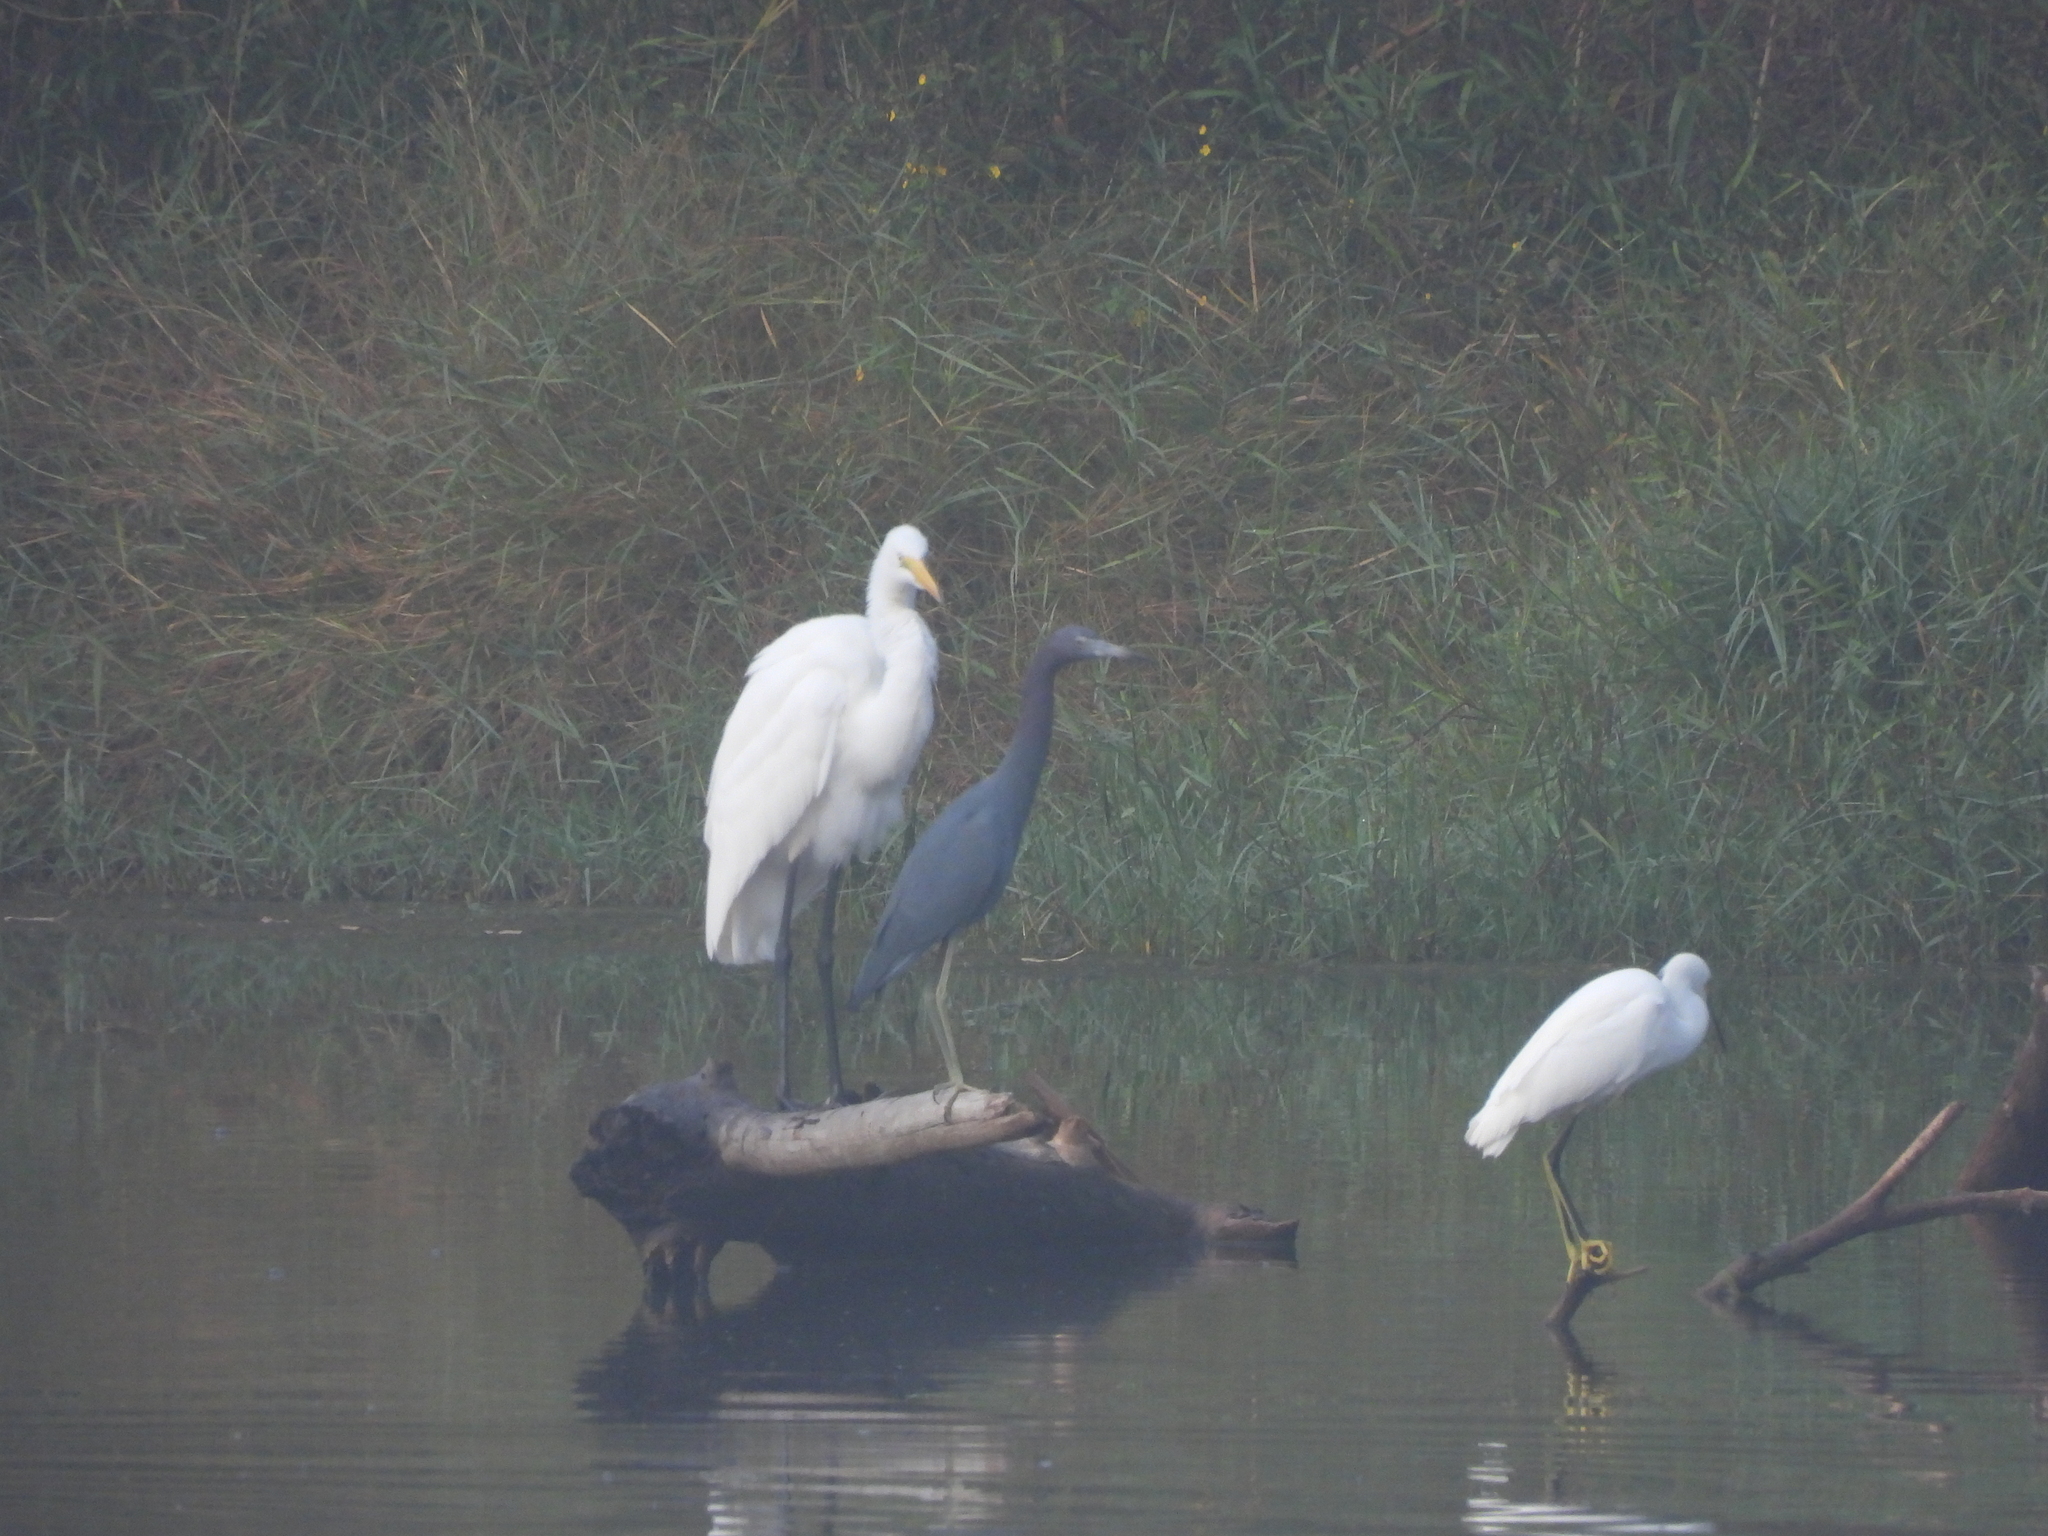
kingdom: Animalia
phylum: Chordata
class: Aves
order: Pelecaniformes
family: Ardeidae
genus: Egretta
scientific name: Egretta caerulea
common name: Little blue heron
